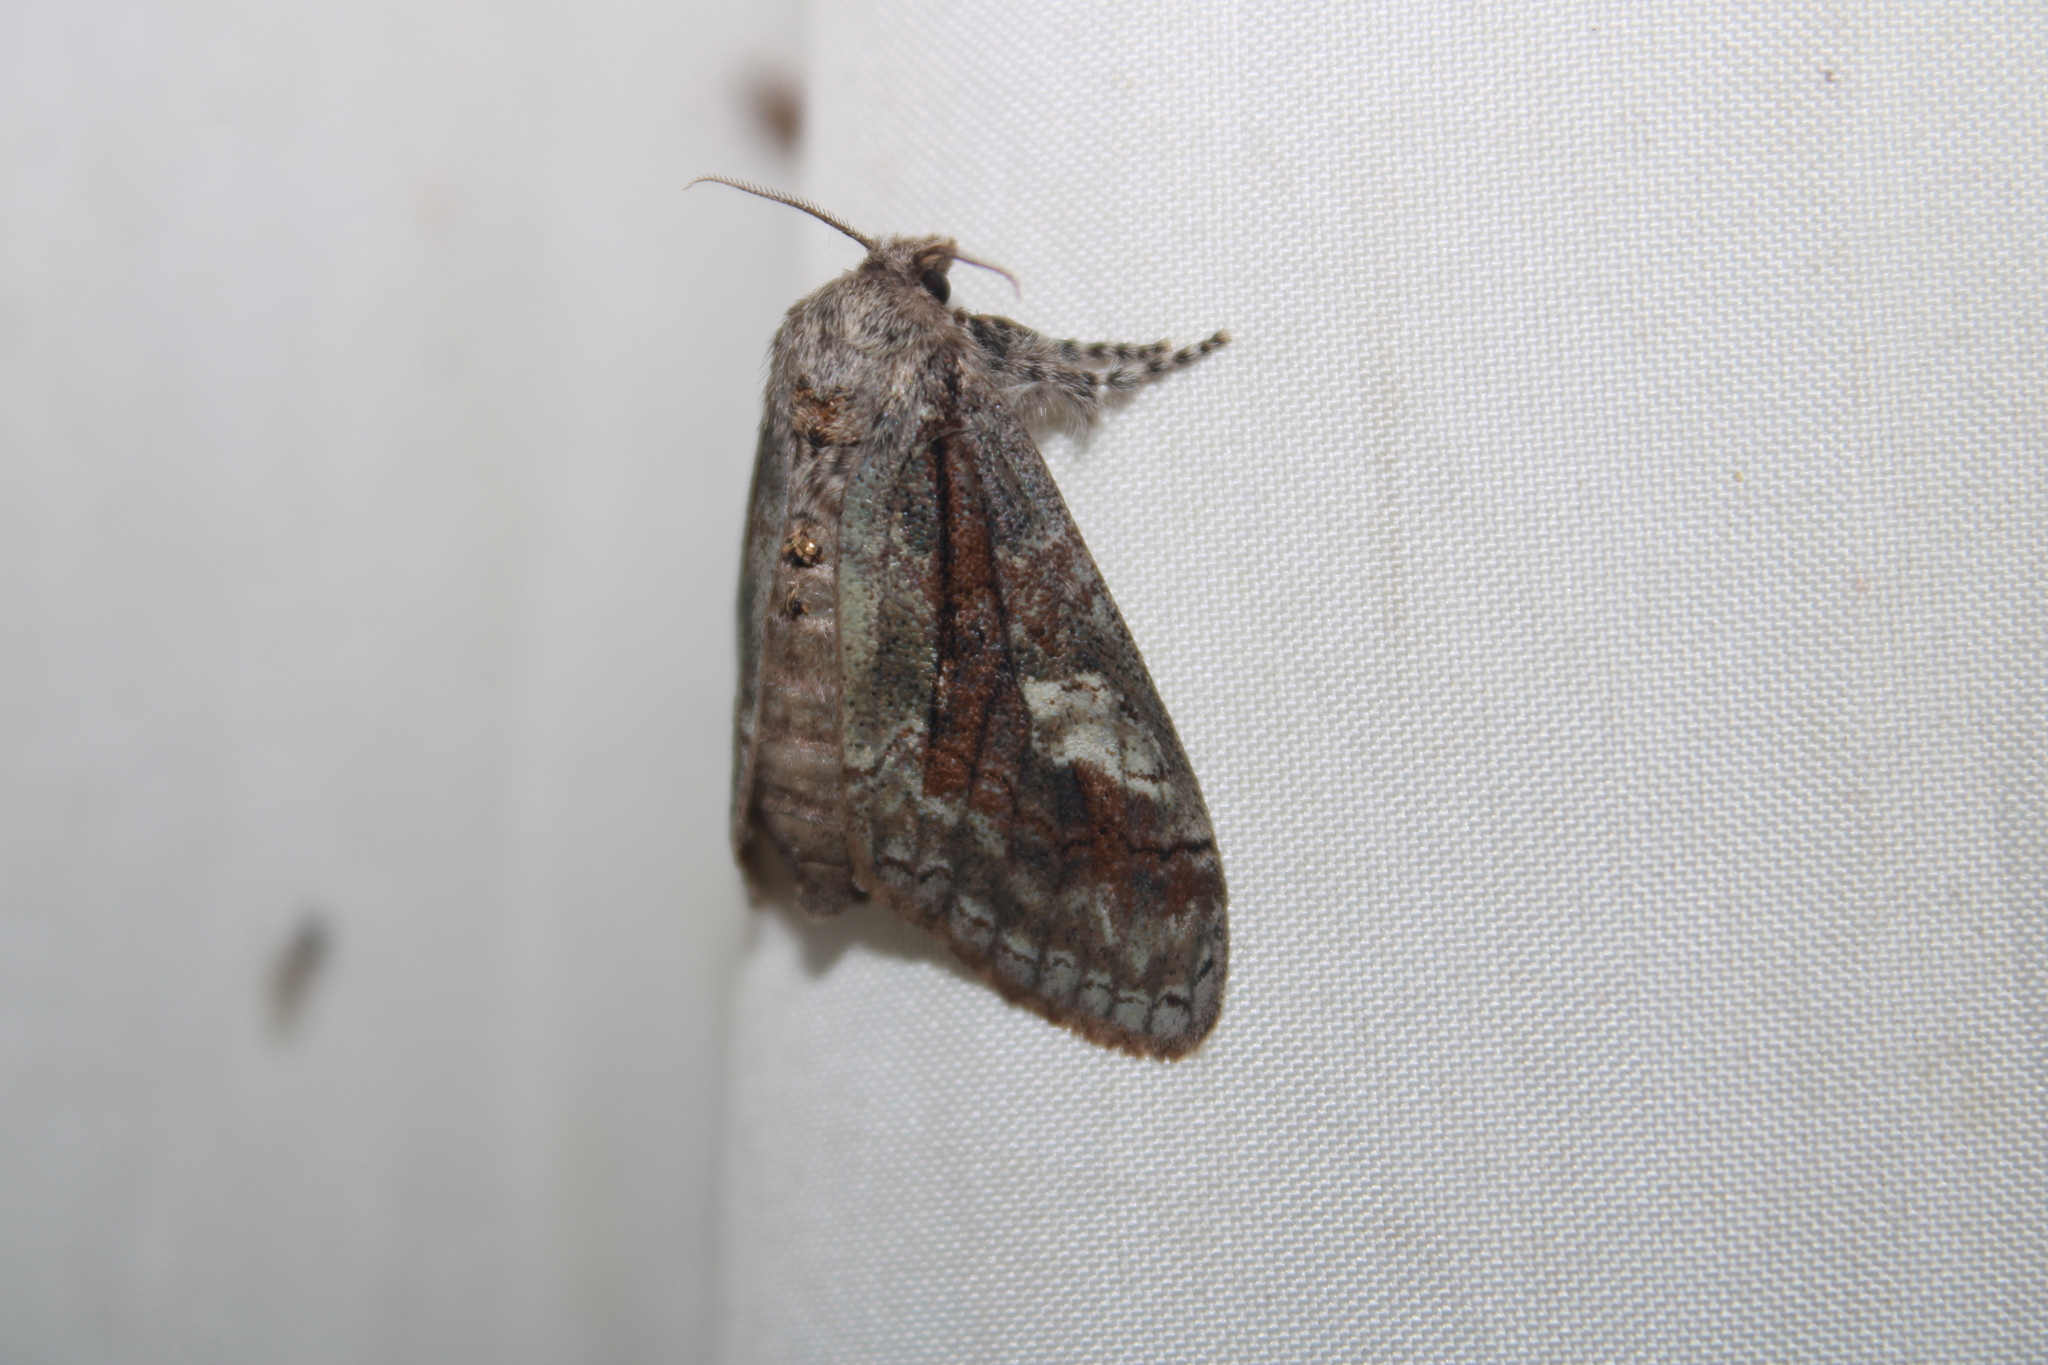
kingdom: Animalia
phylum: Arthropoda
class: Insecta
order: Lepidoptera
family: Erebidae
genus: Dasychira
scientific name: Dasychira obliquata
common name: Streaked tussock moth
